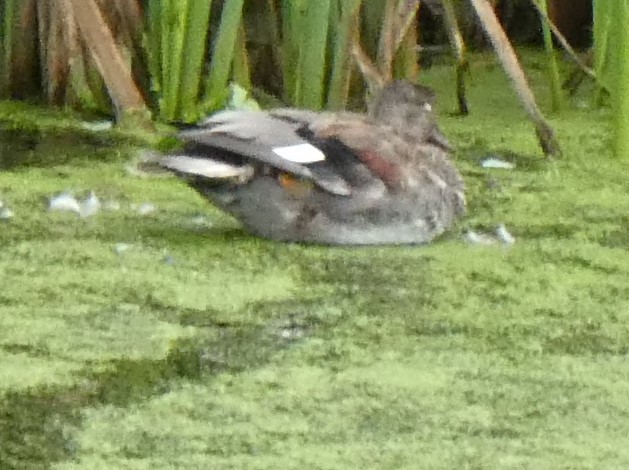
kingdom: Animalia
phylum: Chordata
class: Aves
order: Anseriformes
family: Anatidae
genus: Mareca
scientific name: Mareca strepera
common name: Gadwall
